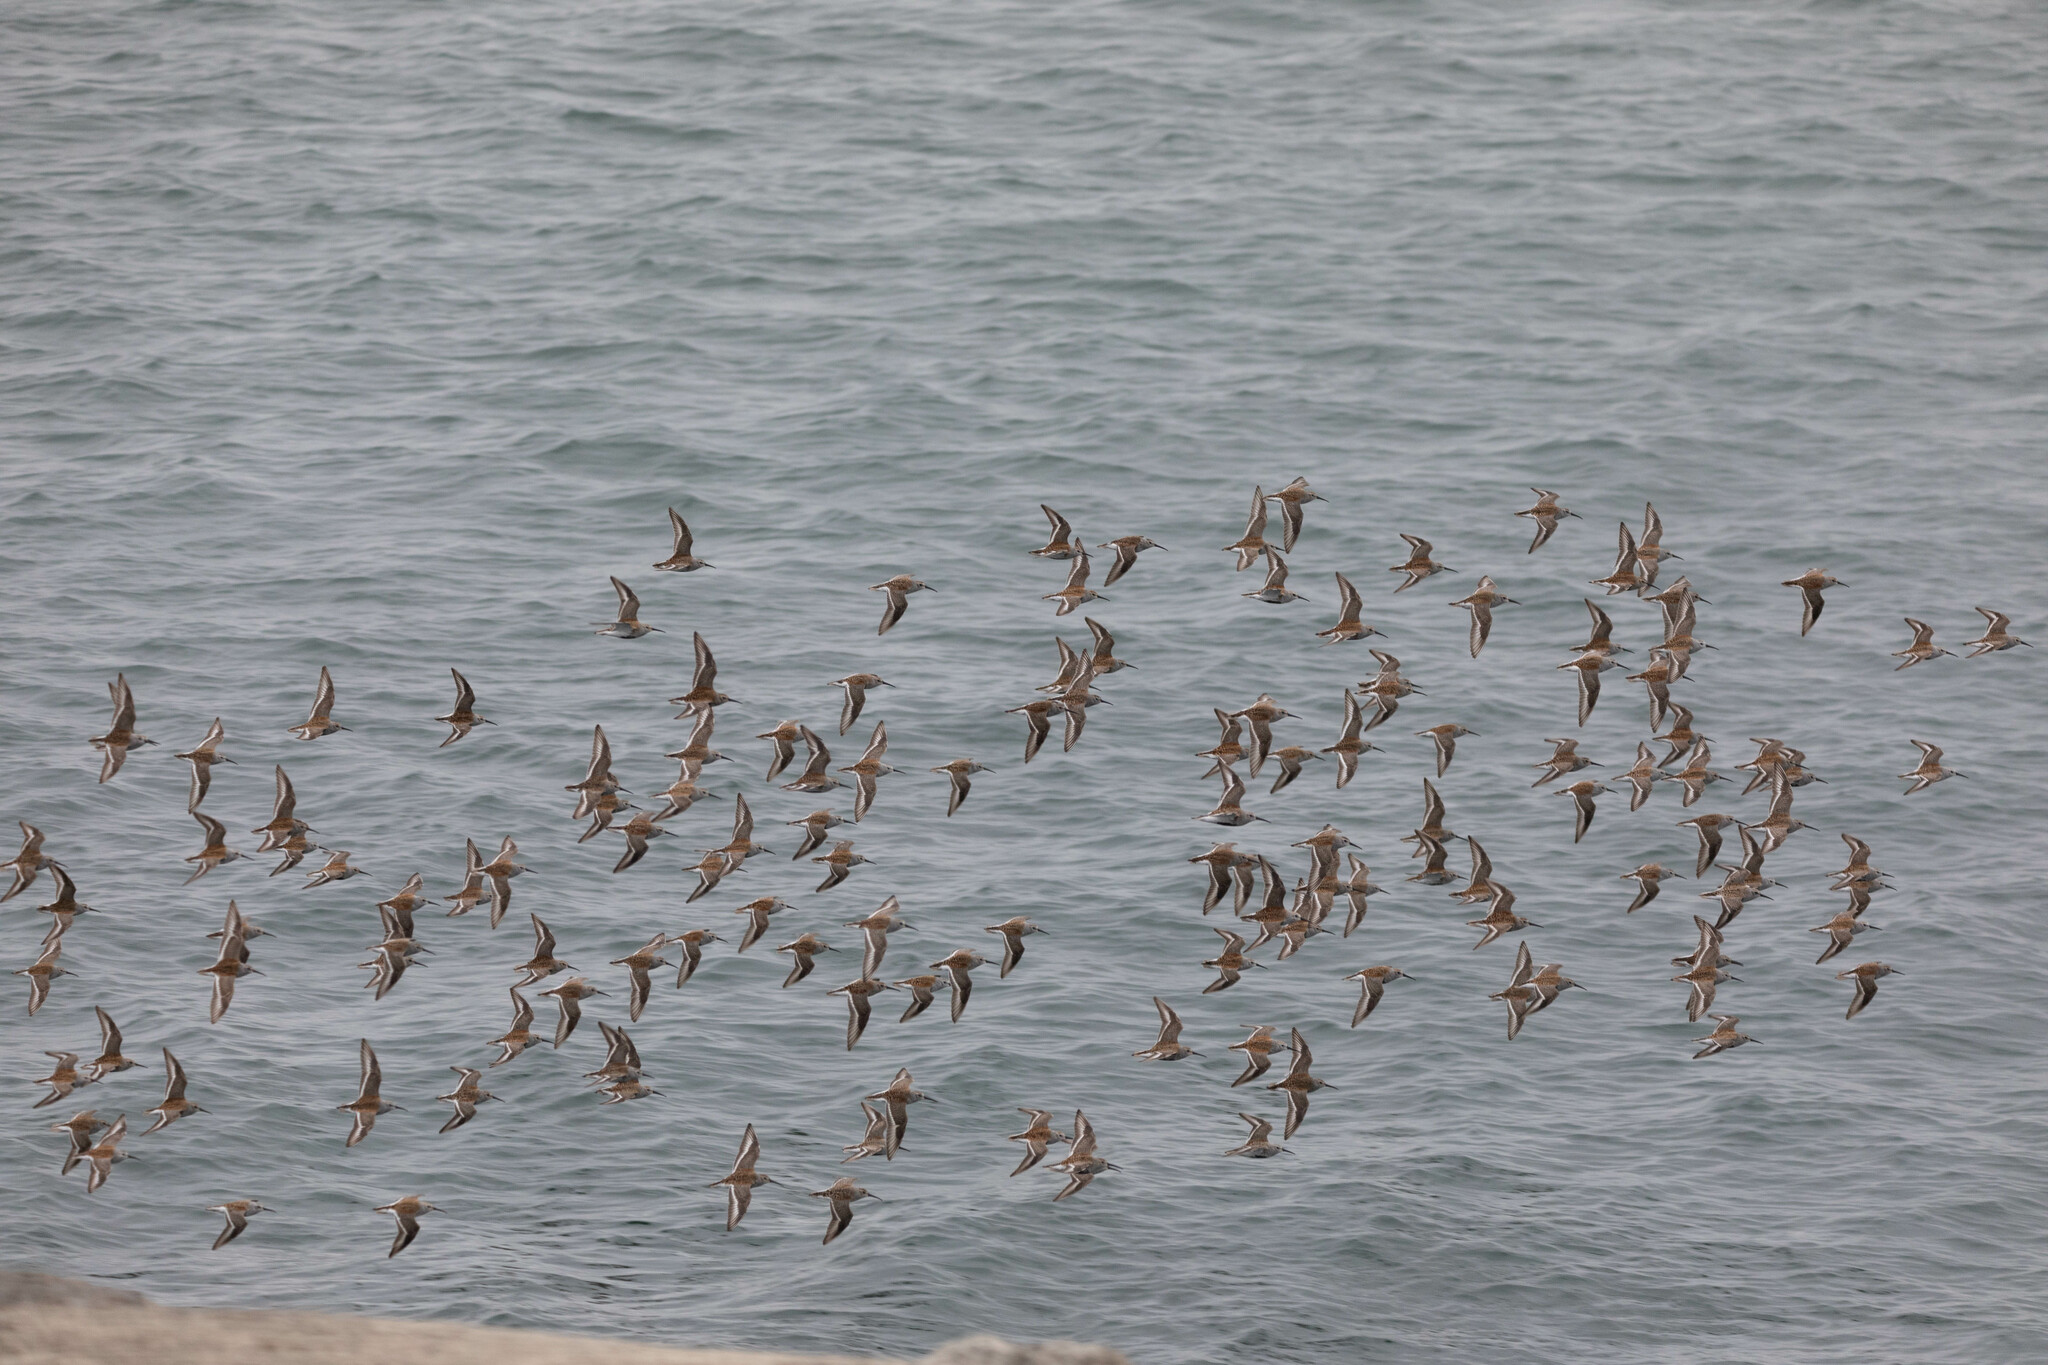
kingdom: Animalia
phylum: Chordata
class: Aves
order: Charadriiformes
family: Scolopacidae
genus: Calidris
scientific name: Calidris alpina
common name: Dunlin
